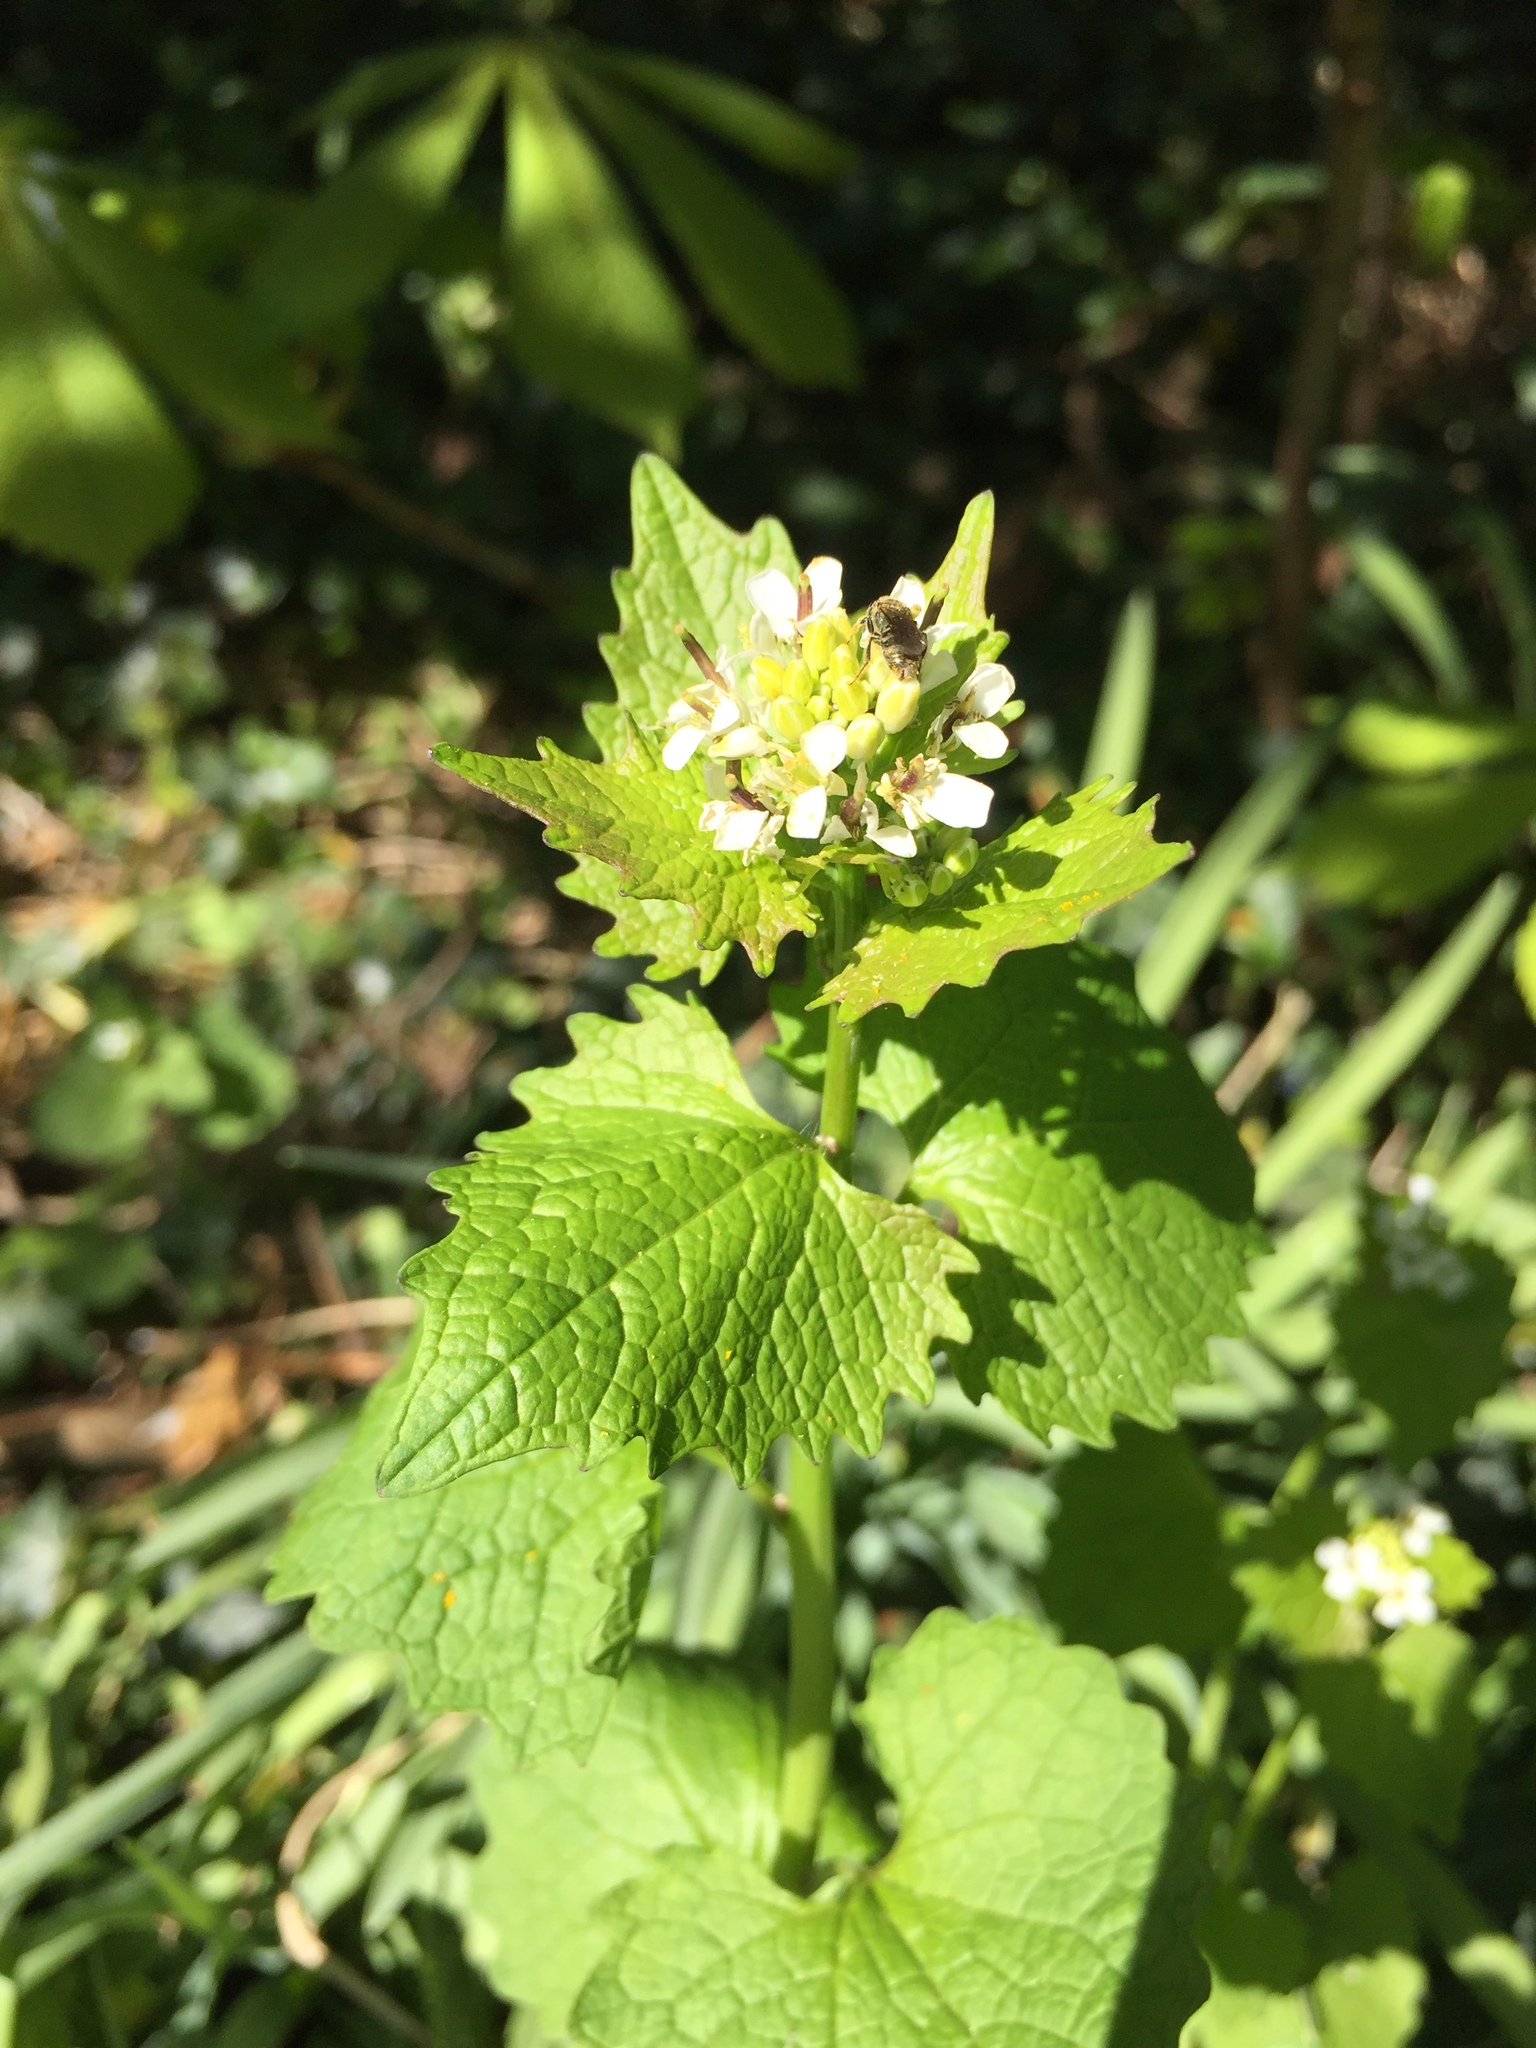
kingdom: Plantae
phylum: Tracheophyta
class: Magnoliopsida
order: Brassicales
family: Brassicaceae
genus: Alliaria
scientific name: Alliaria petiolata
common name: Garlic mustard
